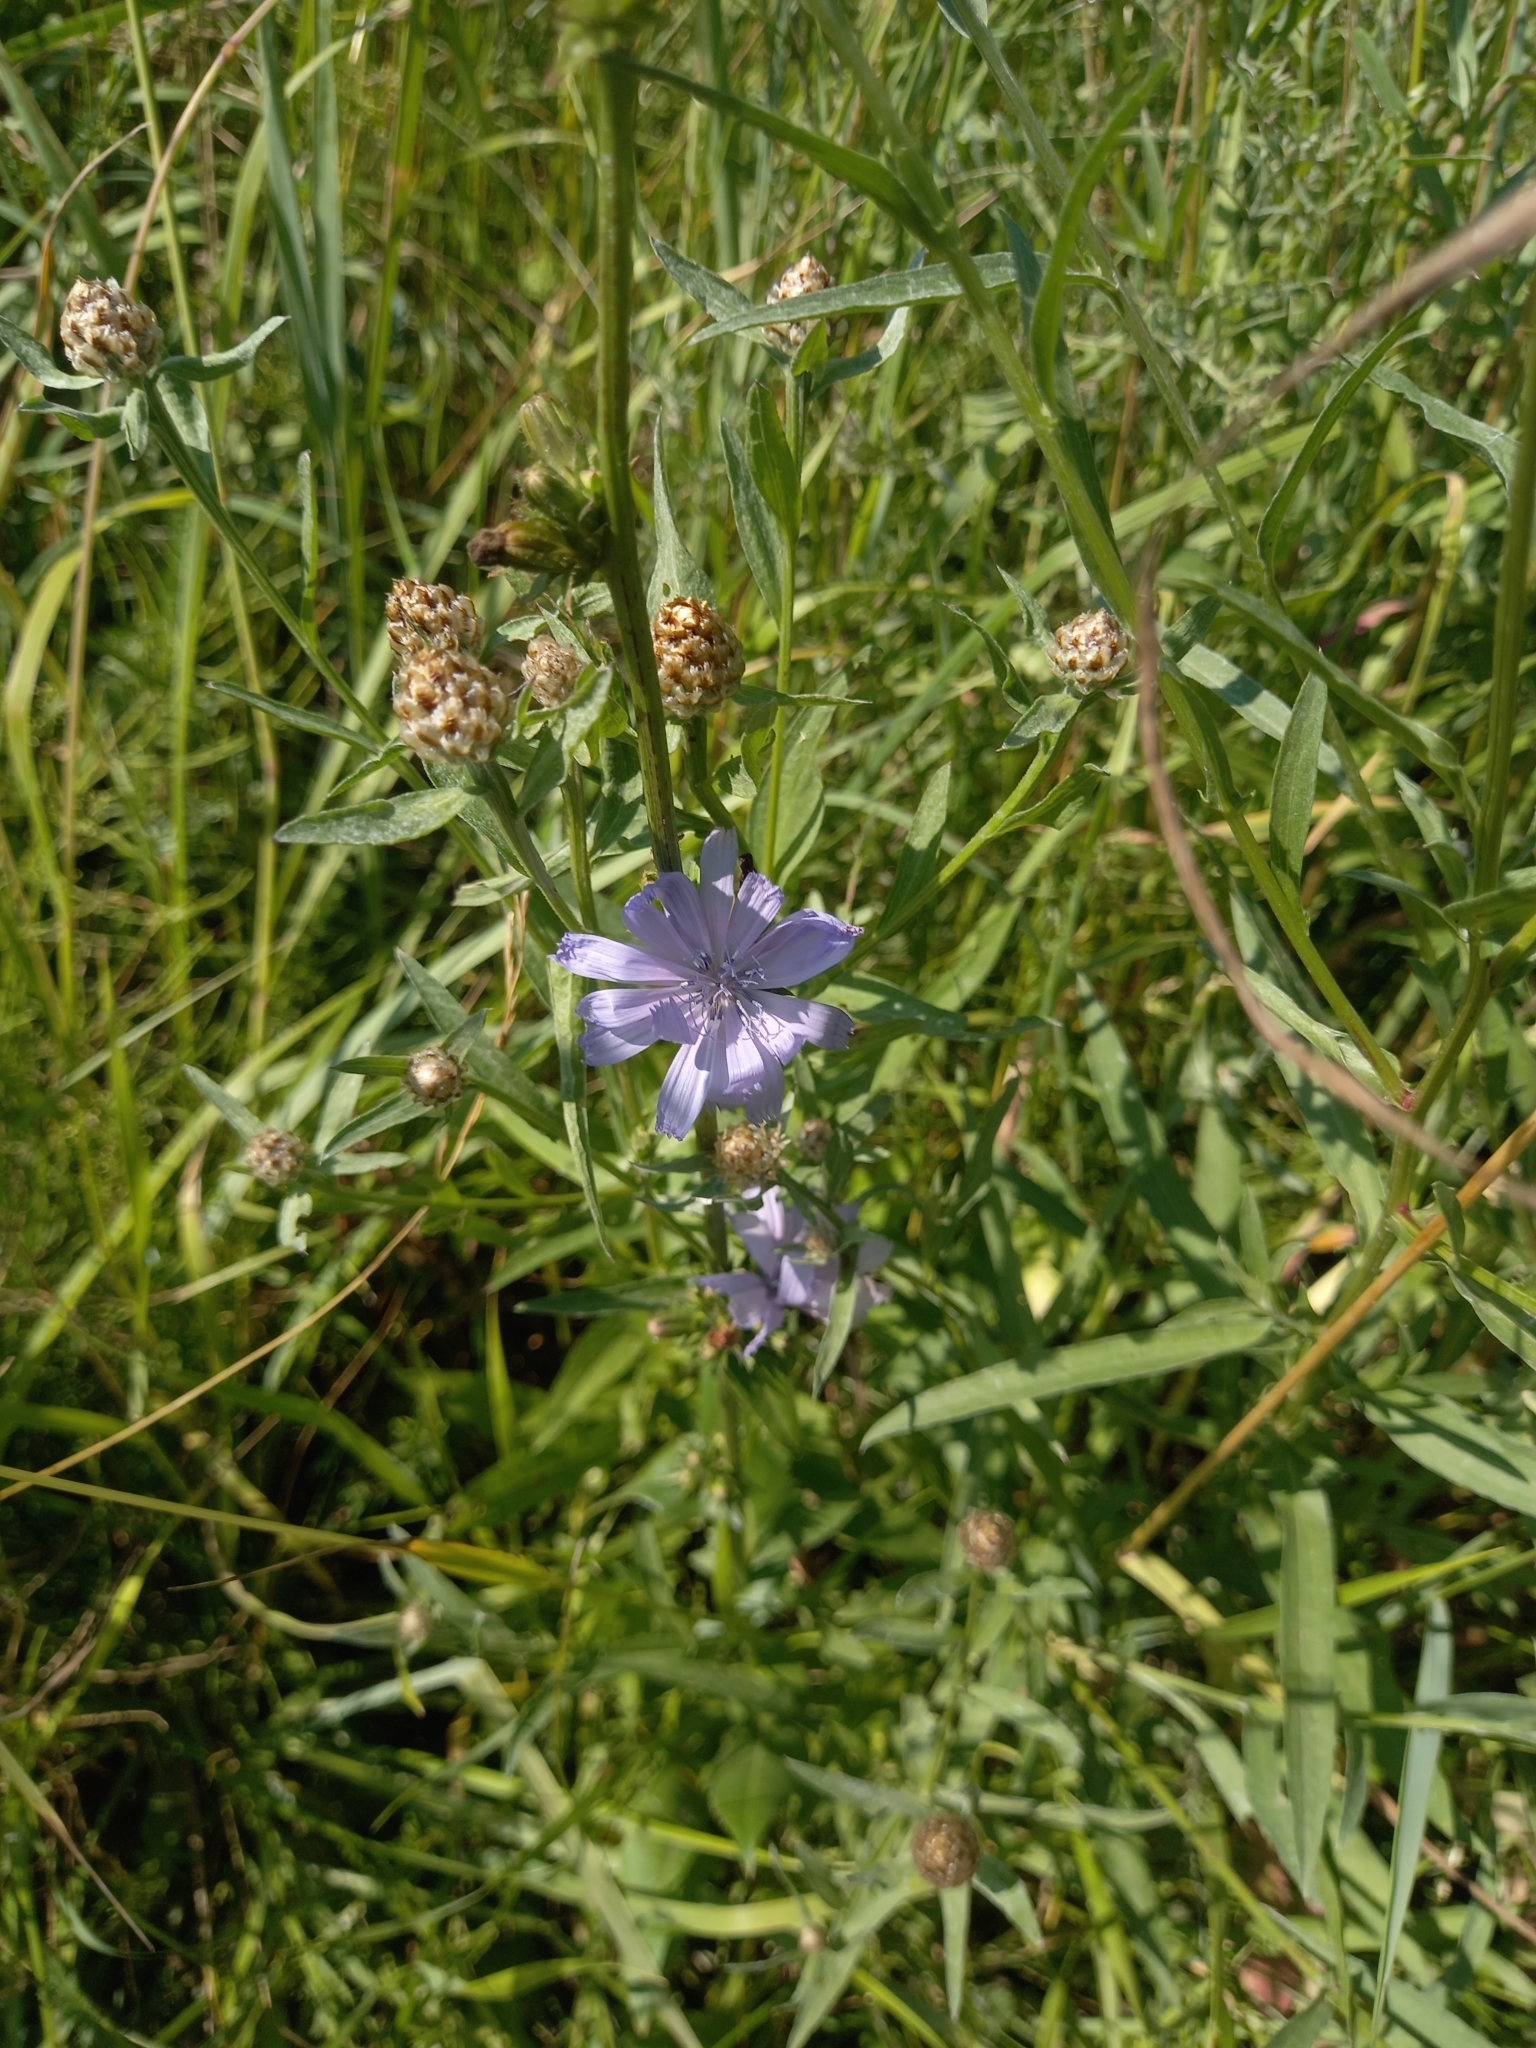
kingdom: Plantae
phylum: Tracheophyta
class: Magnoliopsida
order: Asterales
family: Asteraceae
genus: Cichorium
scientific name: Cichorium intybus
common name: Chicory
